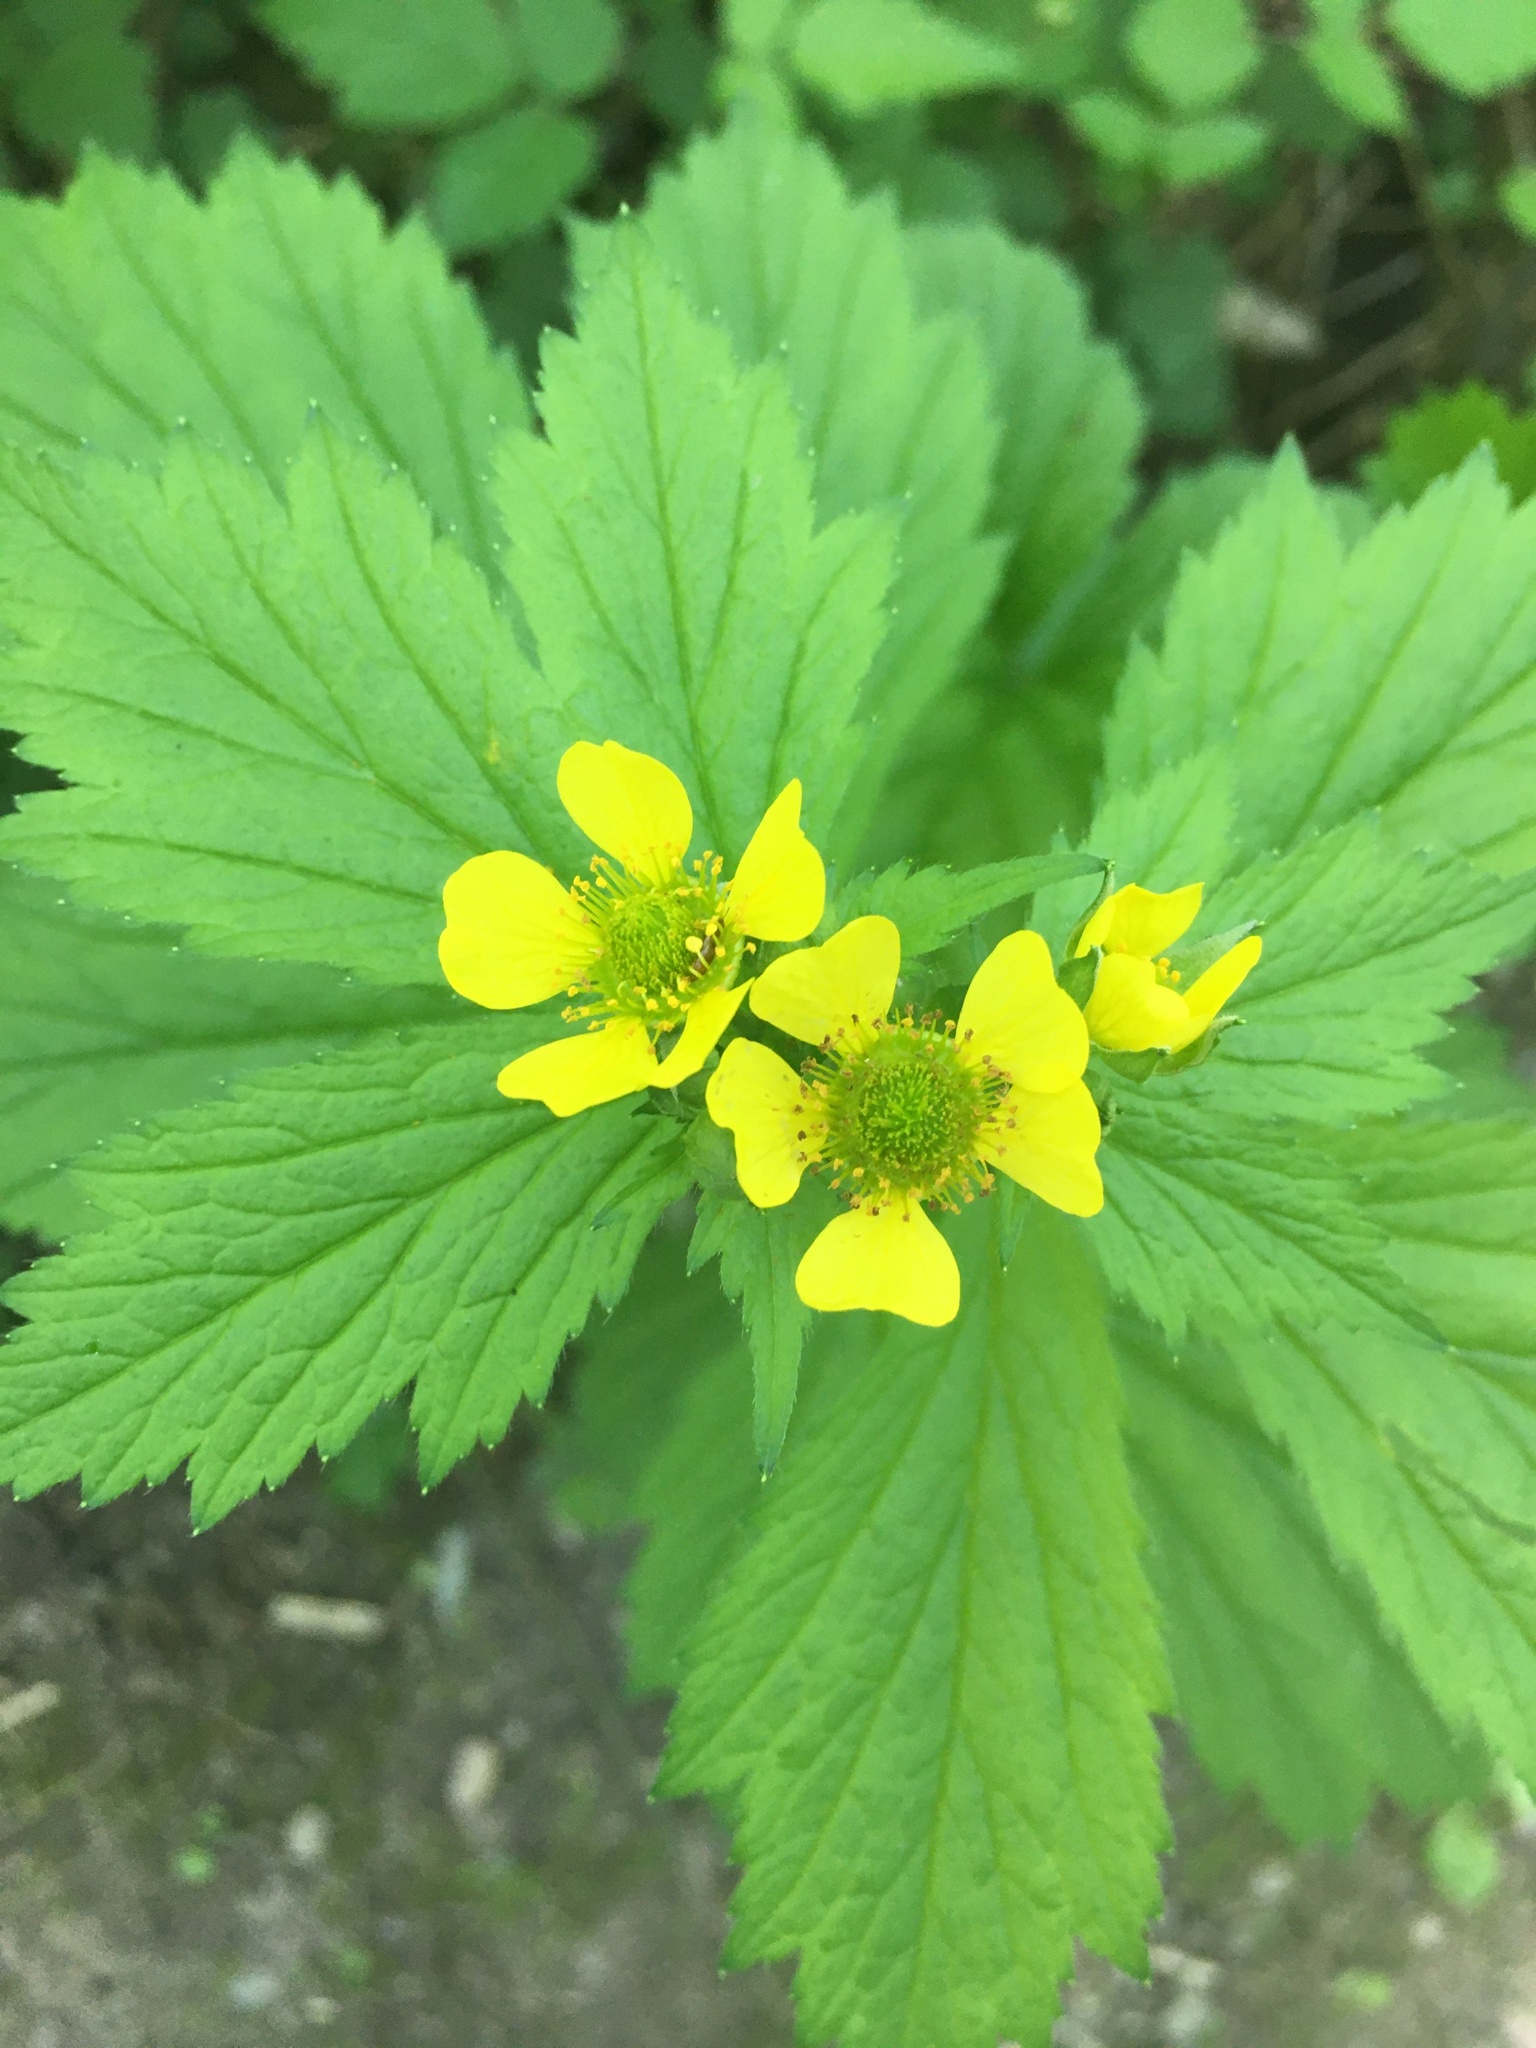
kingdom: Plantae
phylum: Tracheophyta
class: Magnoliopsida
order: Rosales
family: Rosaceae
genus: Geum
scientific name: Geum macrophyllum
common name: Large-leaved avens
